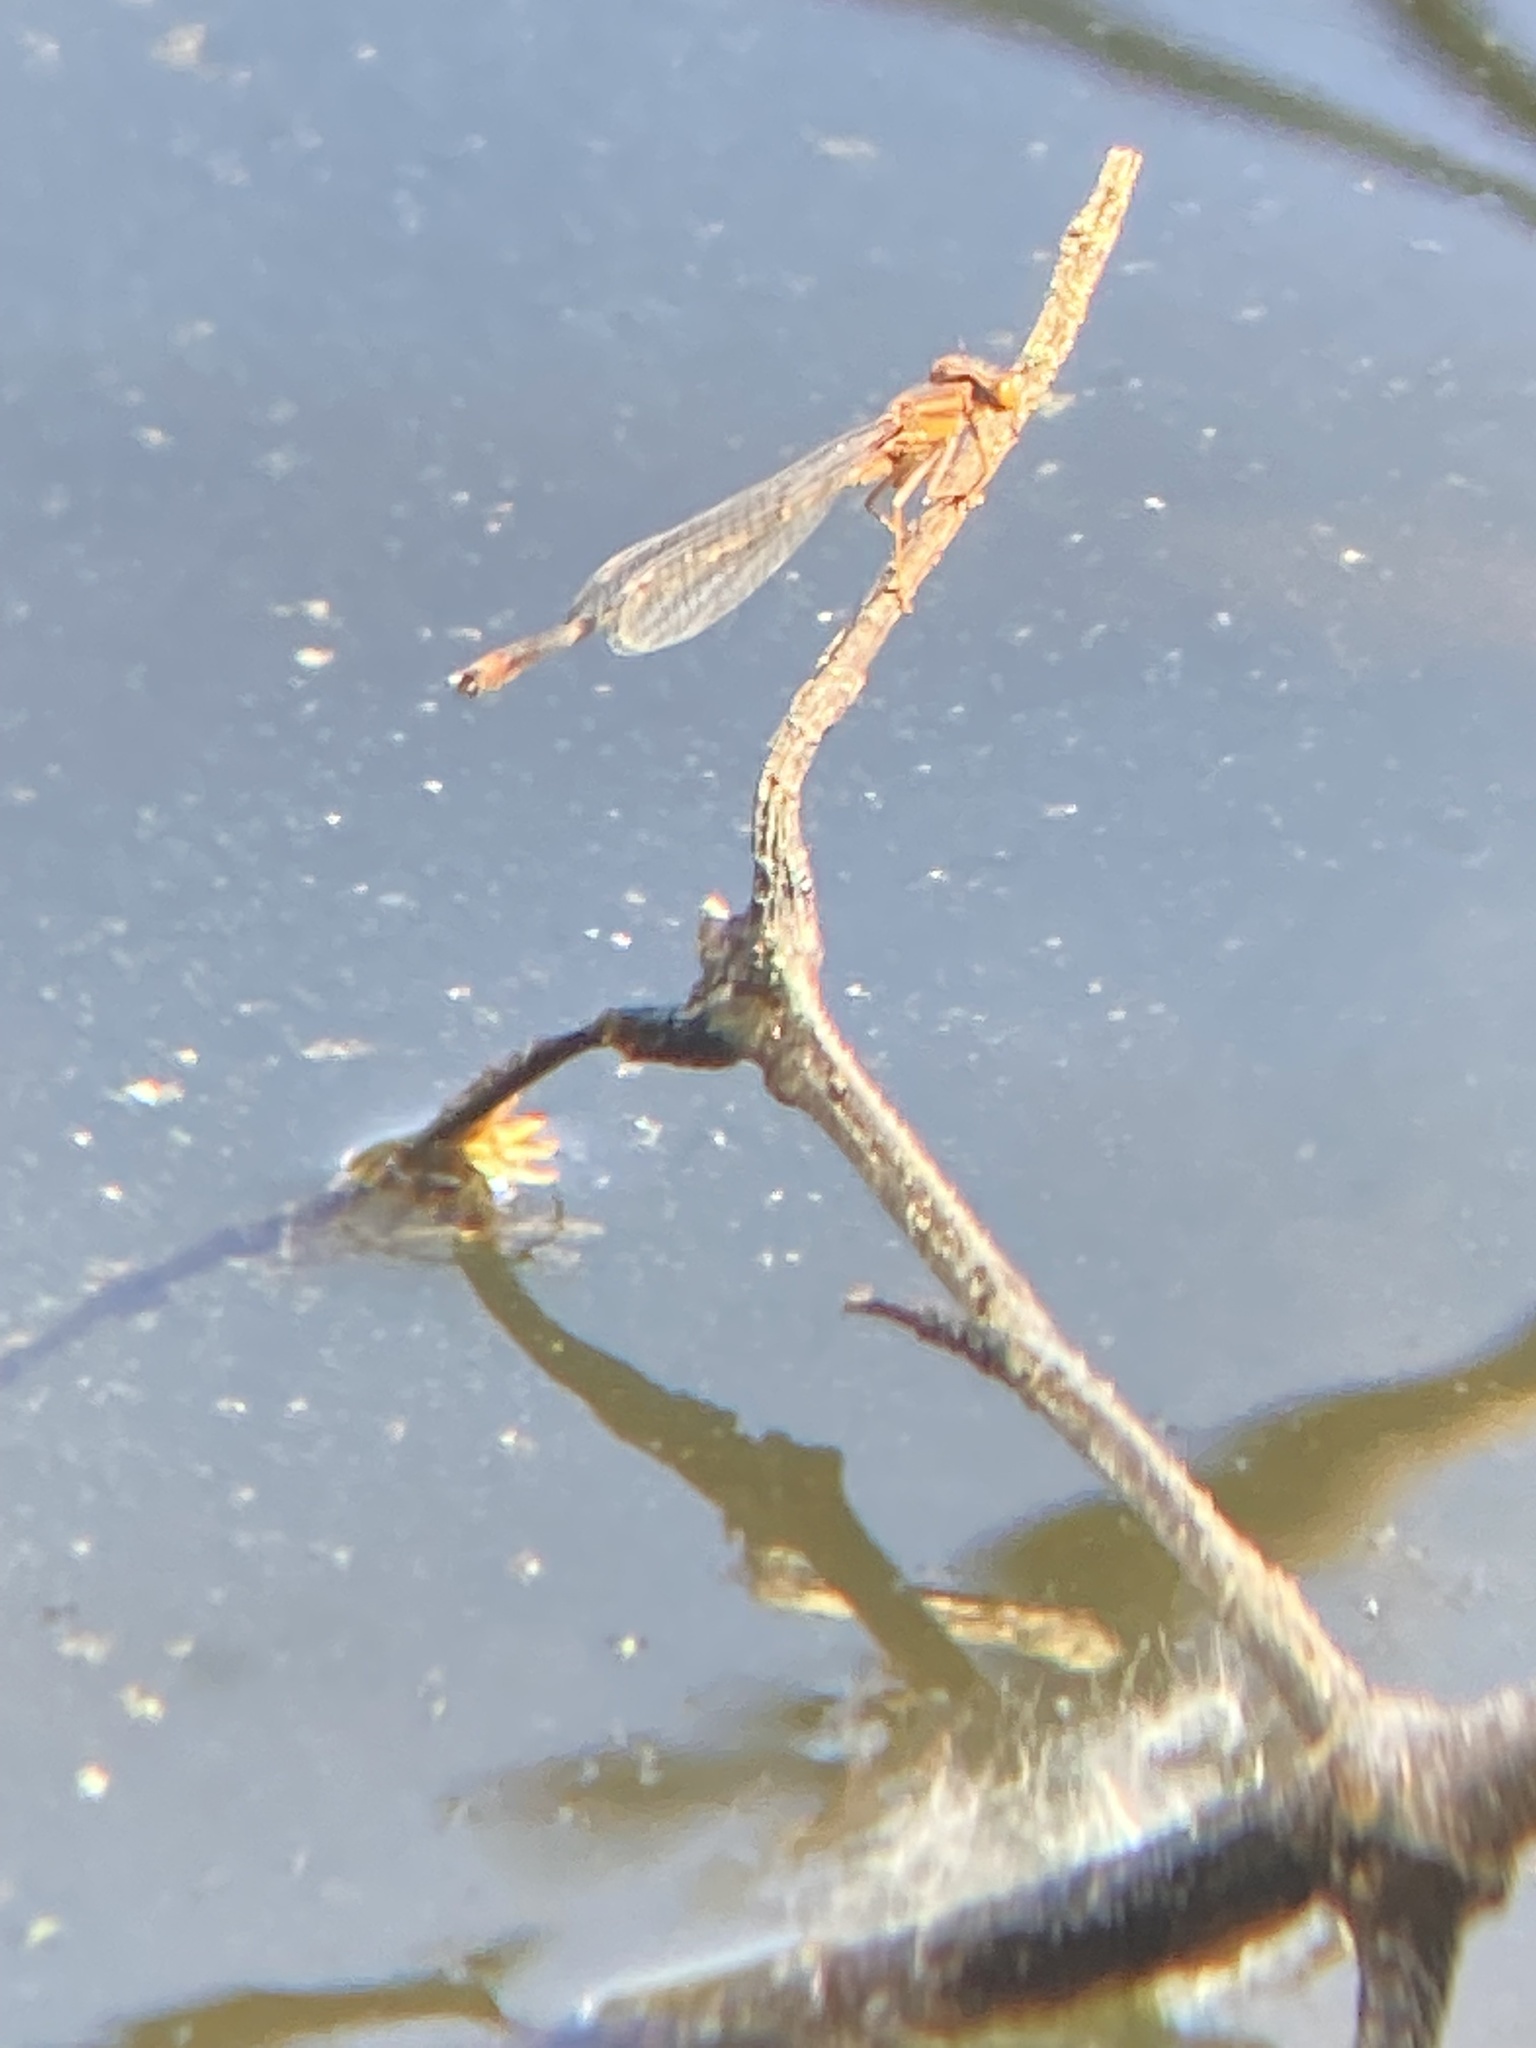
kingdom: Animalia
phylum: Arthropoda
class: Insecta
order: Odonata
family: Coenagrionidae
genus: Enallagma
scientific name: Enallagma signatum
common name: Orange bluet
